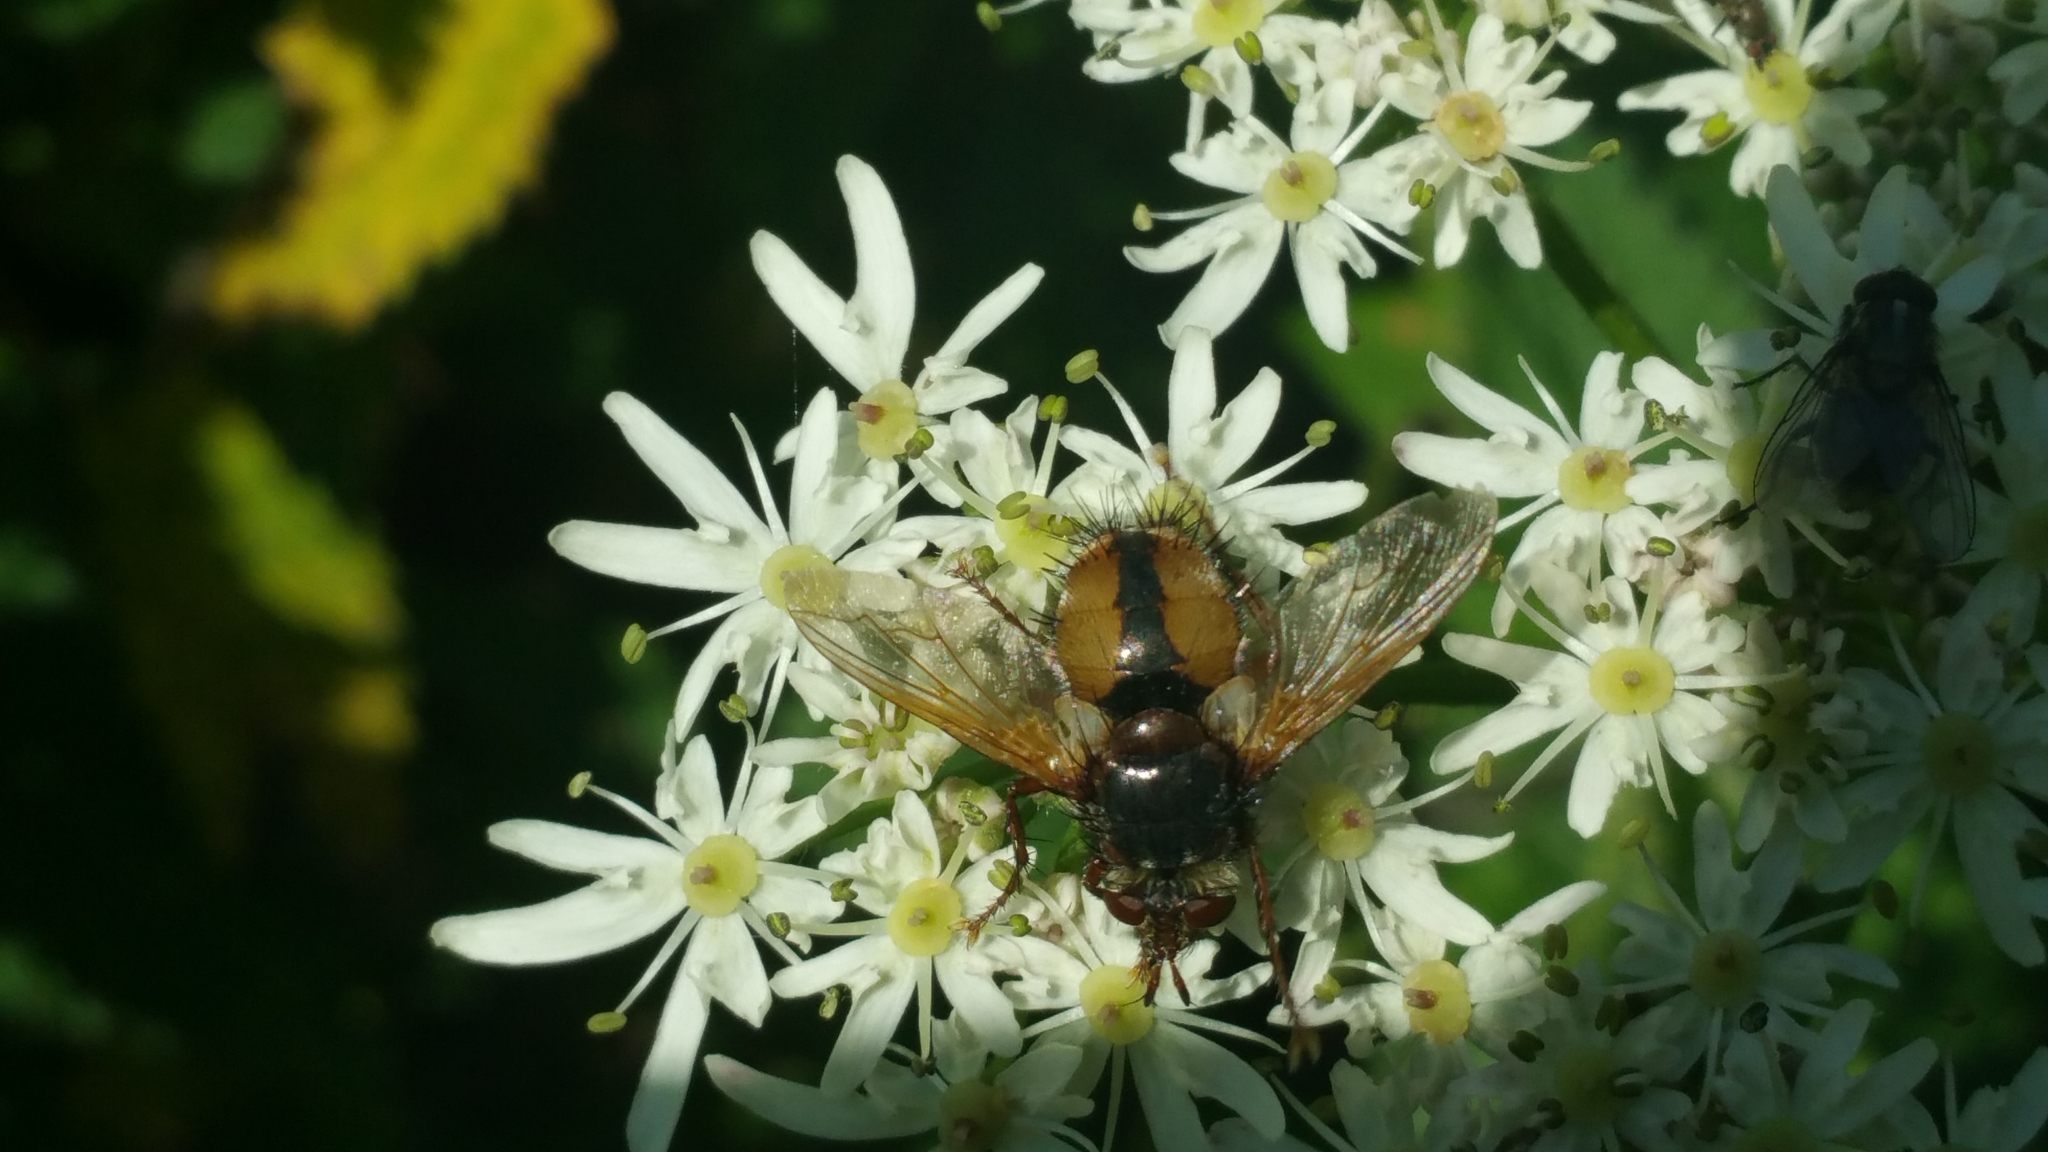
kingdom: Animalia
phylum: Arthropoda
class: Insecta
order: Diptera
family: Tachinidae
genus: Tachina
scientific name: Tachina fera
